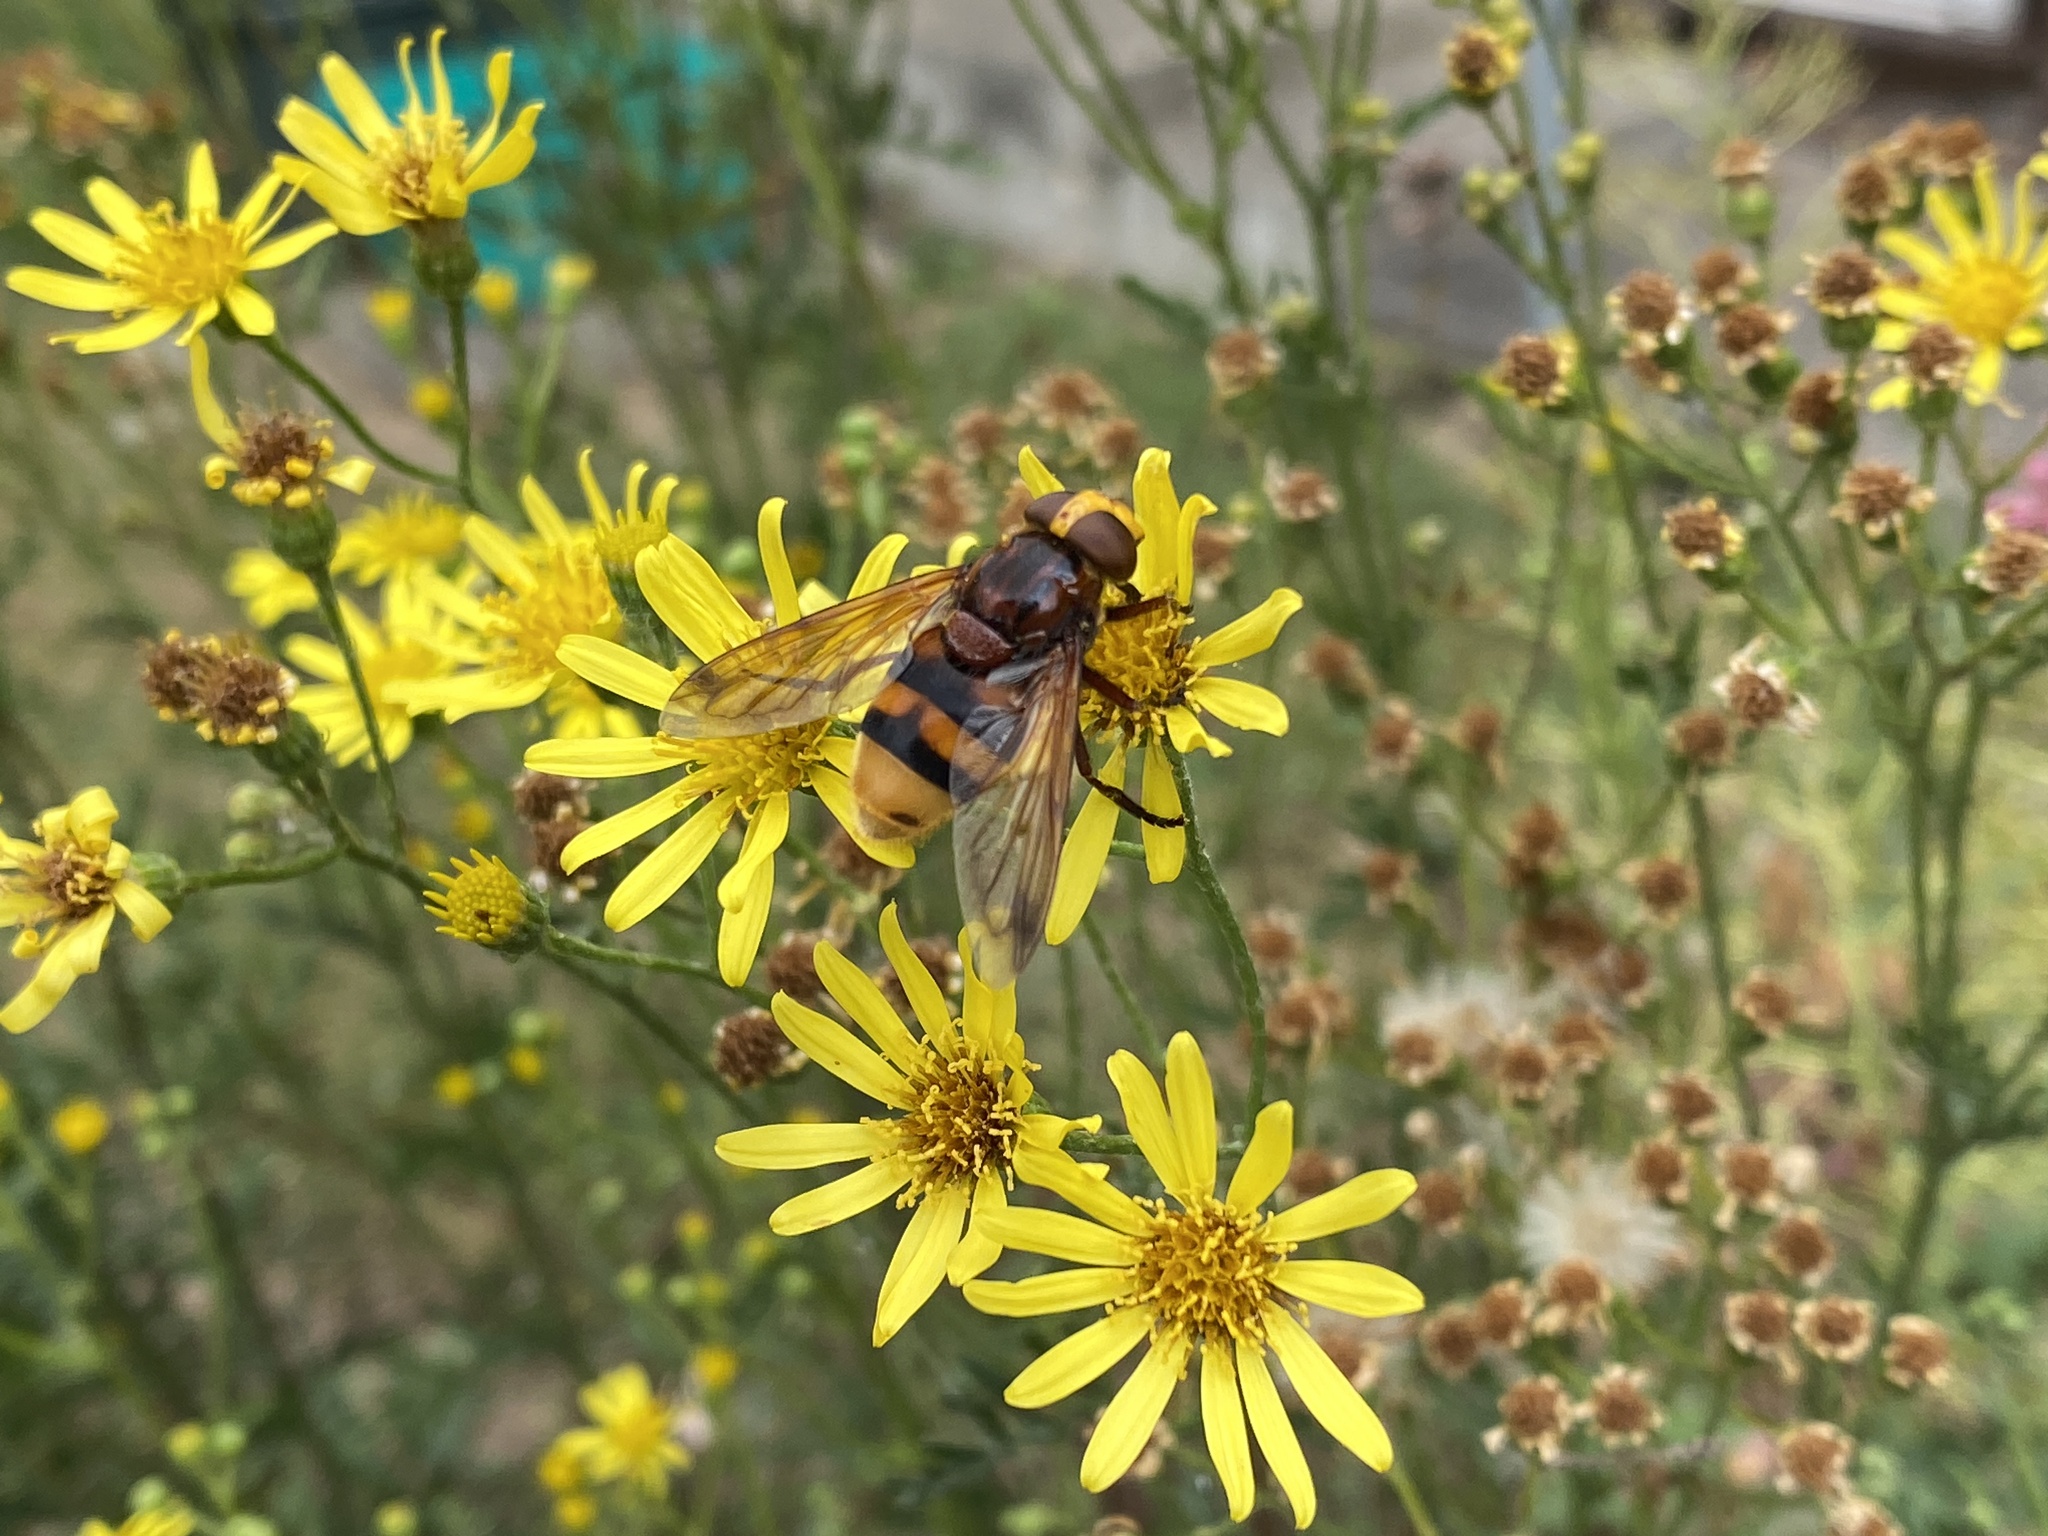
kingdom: Animalia
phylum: Arthropoda
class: Insecta
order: Diptera
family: Syrphidae
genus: Volucella
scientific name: Volucella zonaria
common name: Hornet hoverfly
